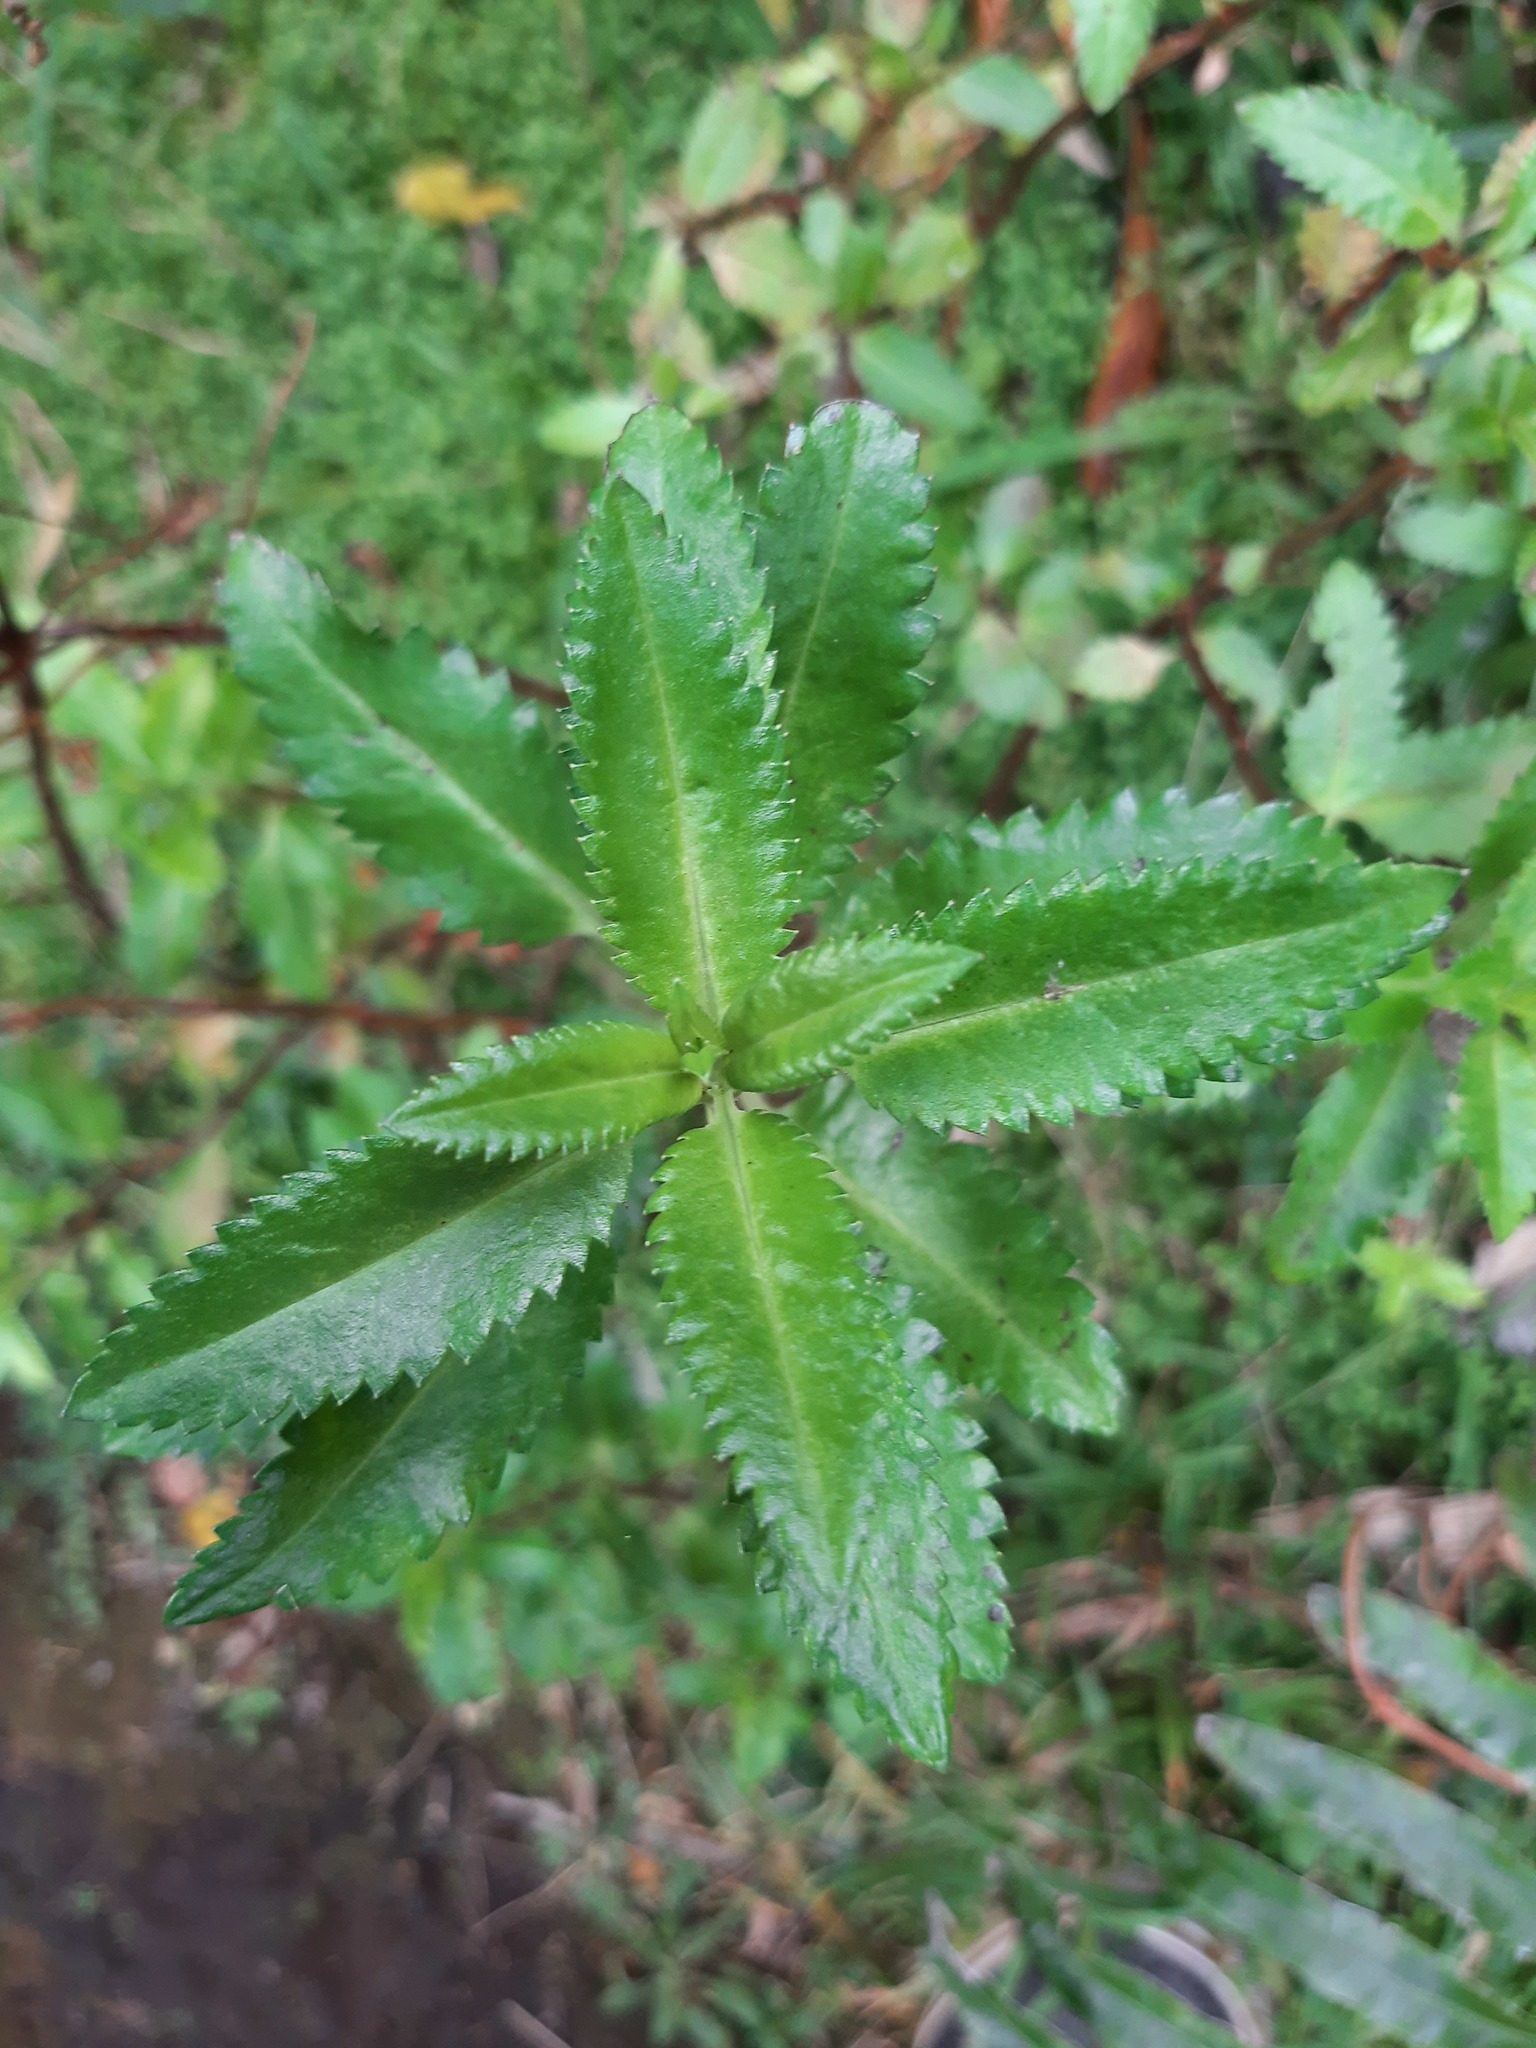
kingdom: Plantae
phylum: Tracheophyta
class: Magnoliopsida
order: Saxifragales
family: Haloragaceae
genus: Haloragis
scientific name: Haloragis erecta
